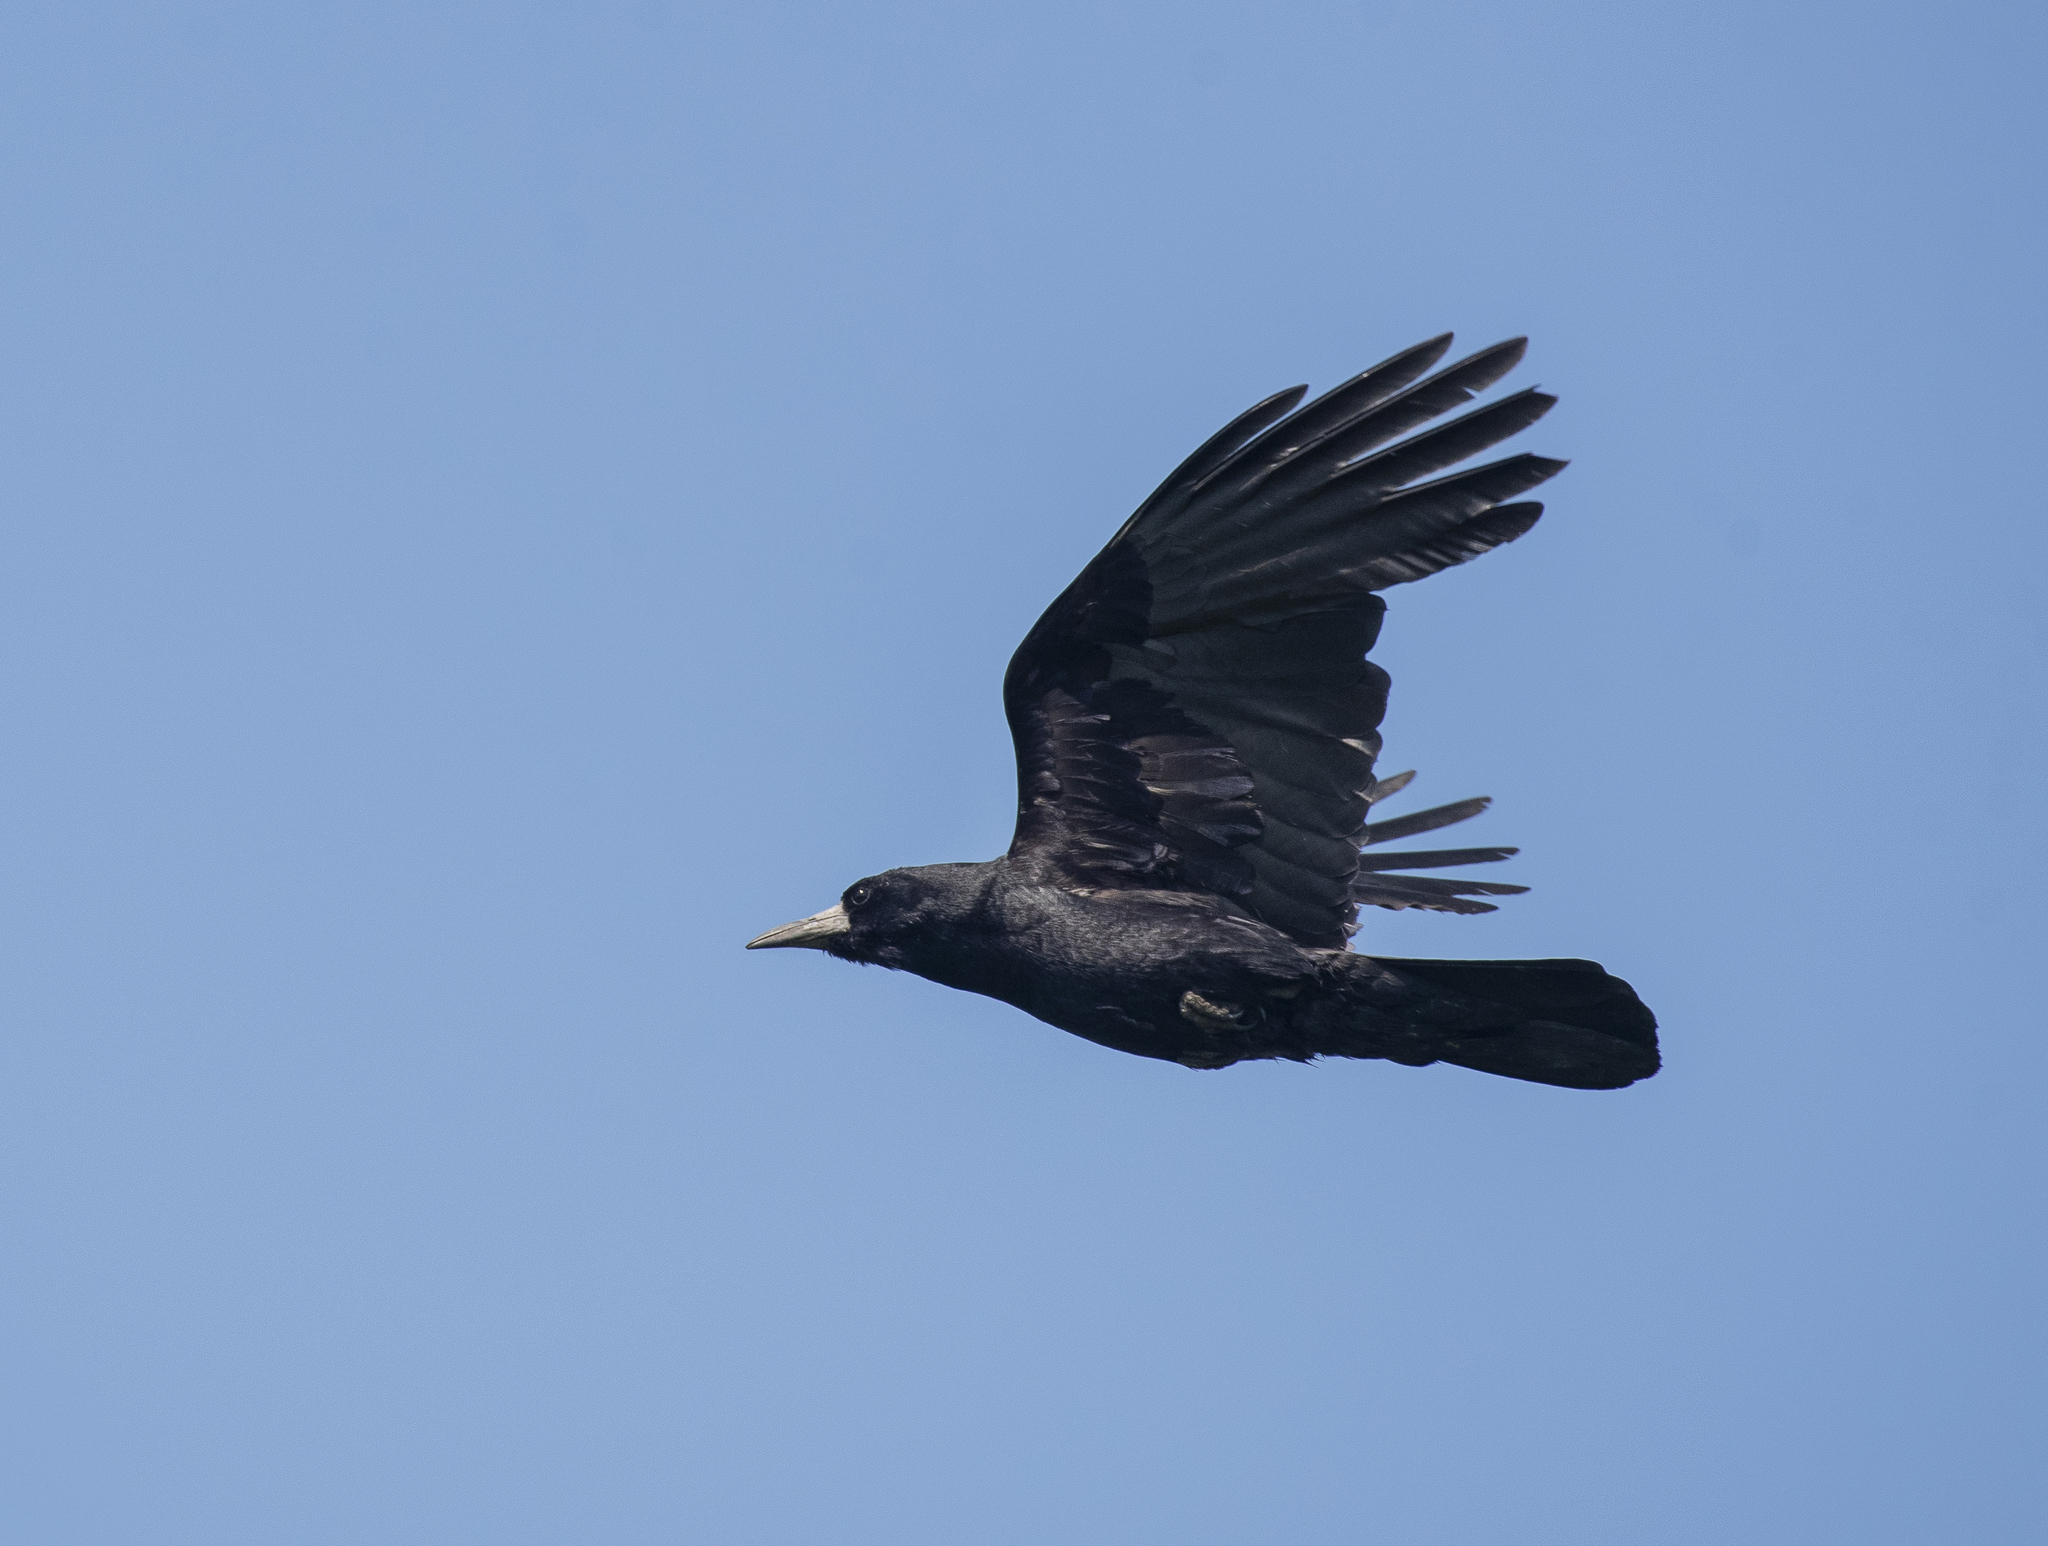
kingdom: Animalia
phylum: Chordata
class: Aves
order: Passeriformes
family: Corvidae
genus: Corvus
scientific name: Corvus frugilegus
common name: Rook
